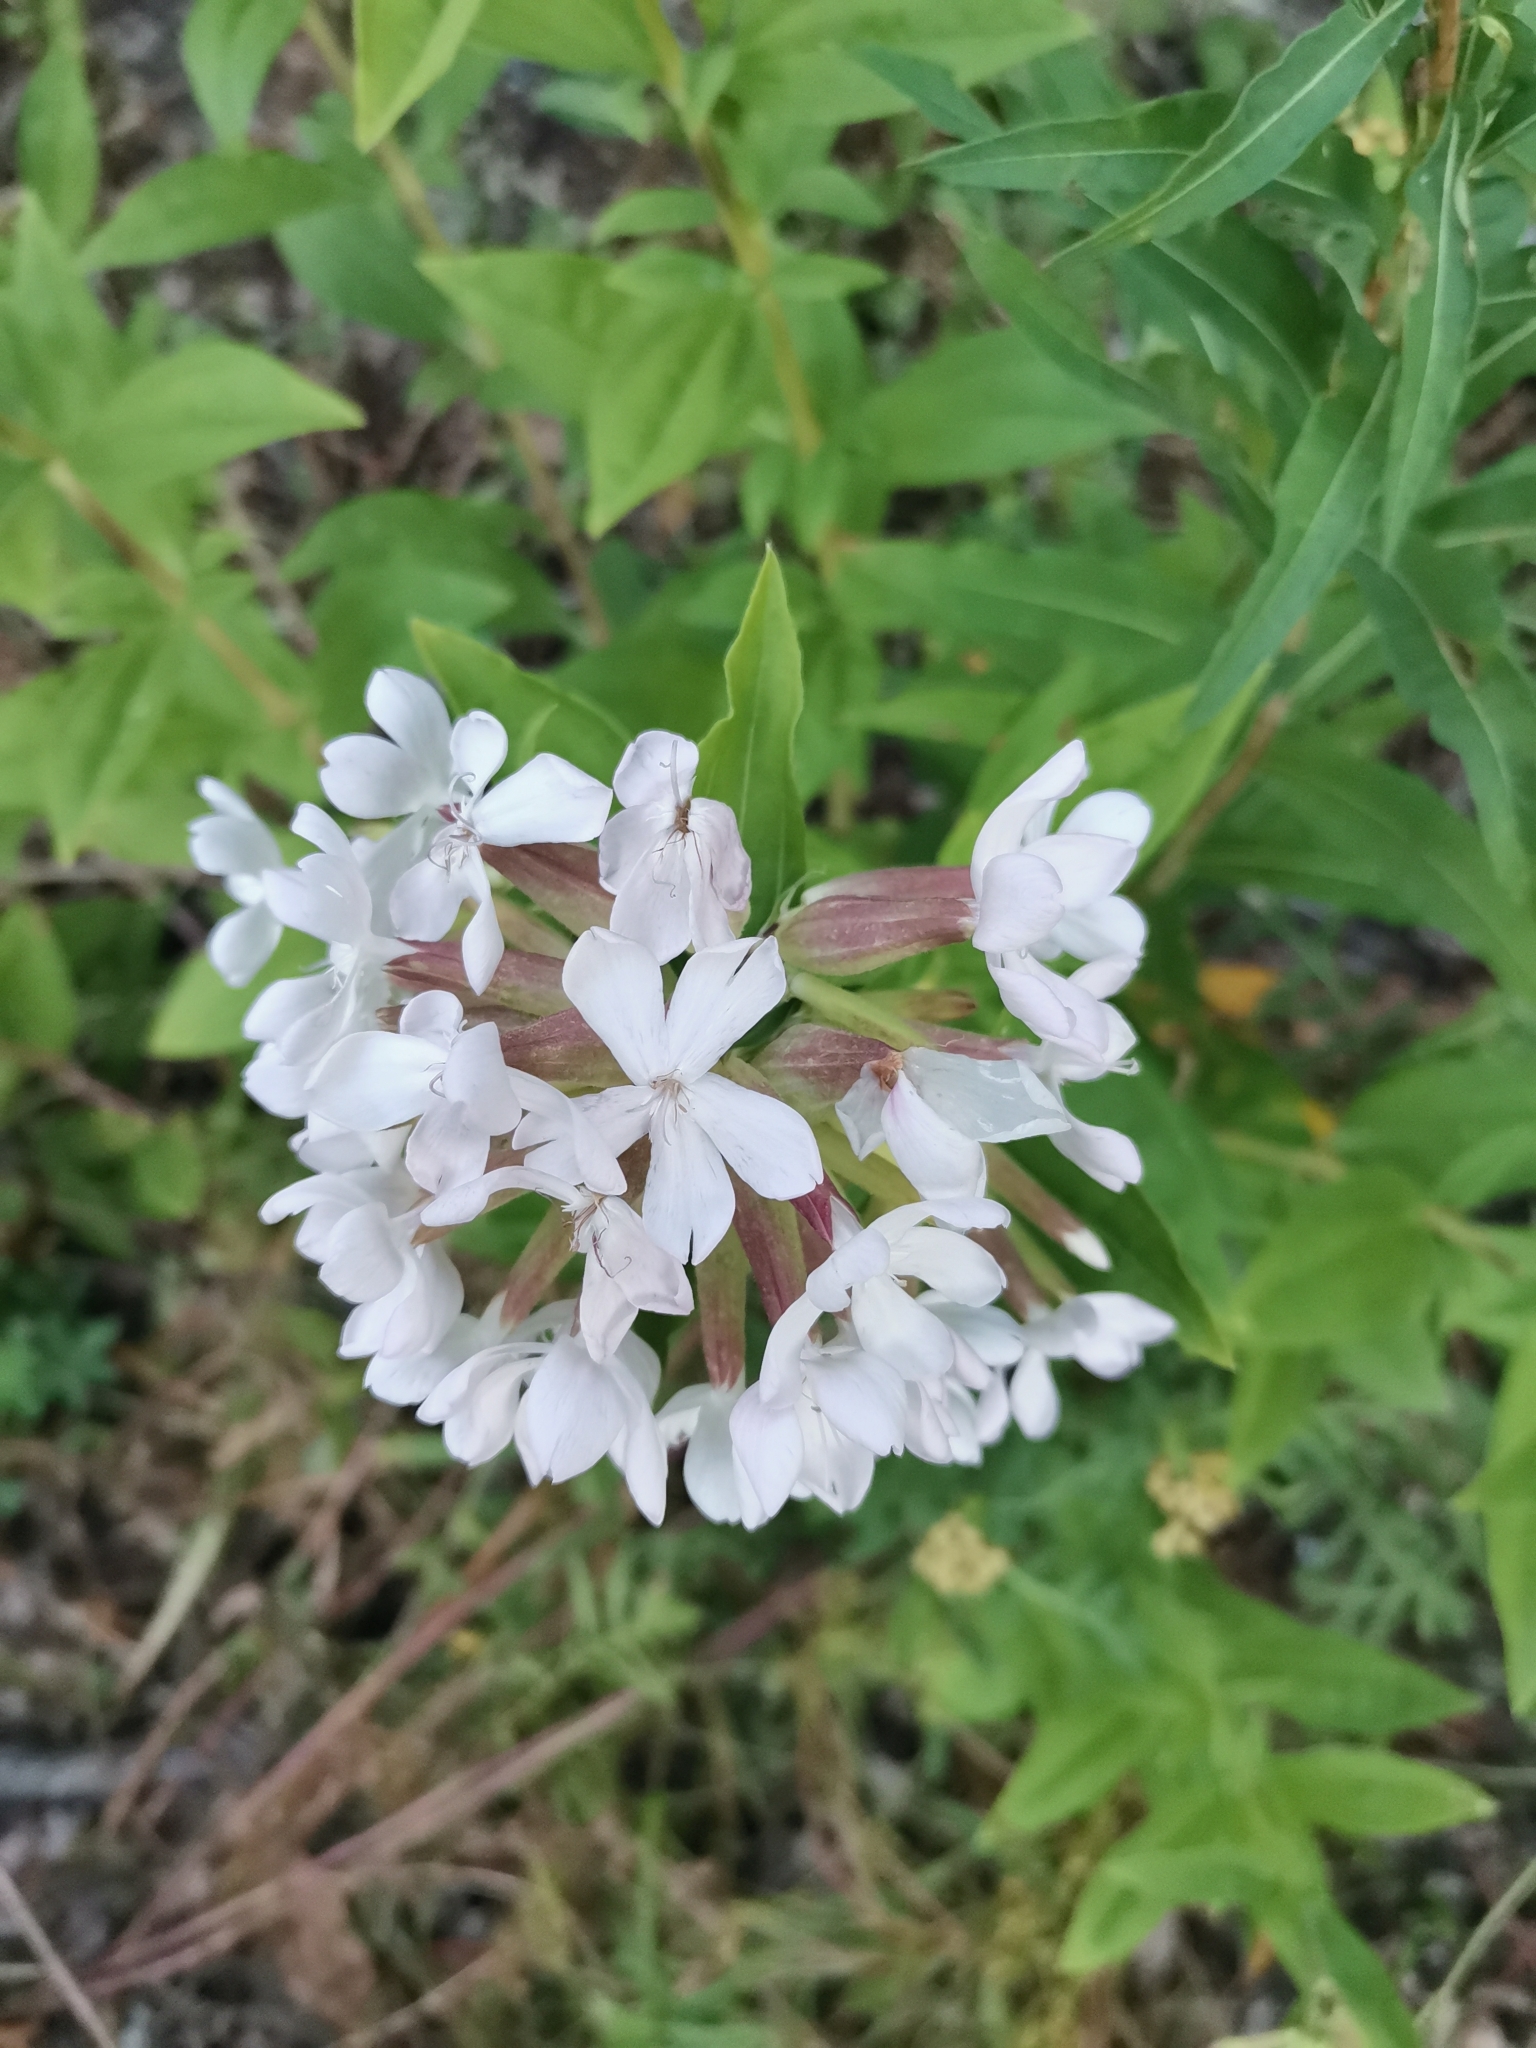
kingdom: Plantae
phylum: Tracheophyta
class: Magnoliopsida
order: Caryophyllales
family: Caryophyllaceae
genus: Saponaria
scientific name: Saponaria officinalis
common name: Soapwort
